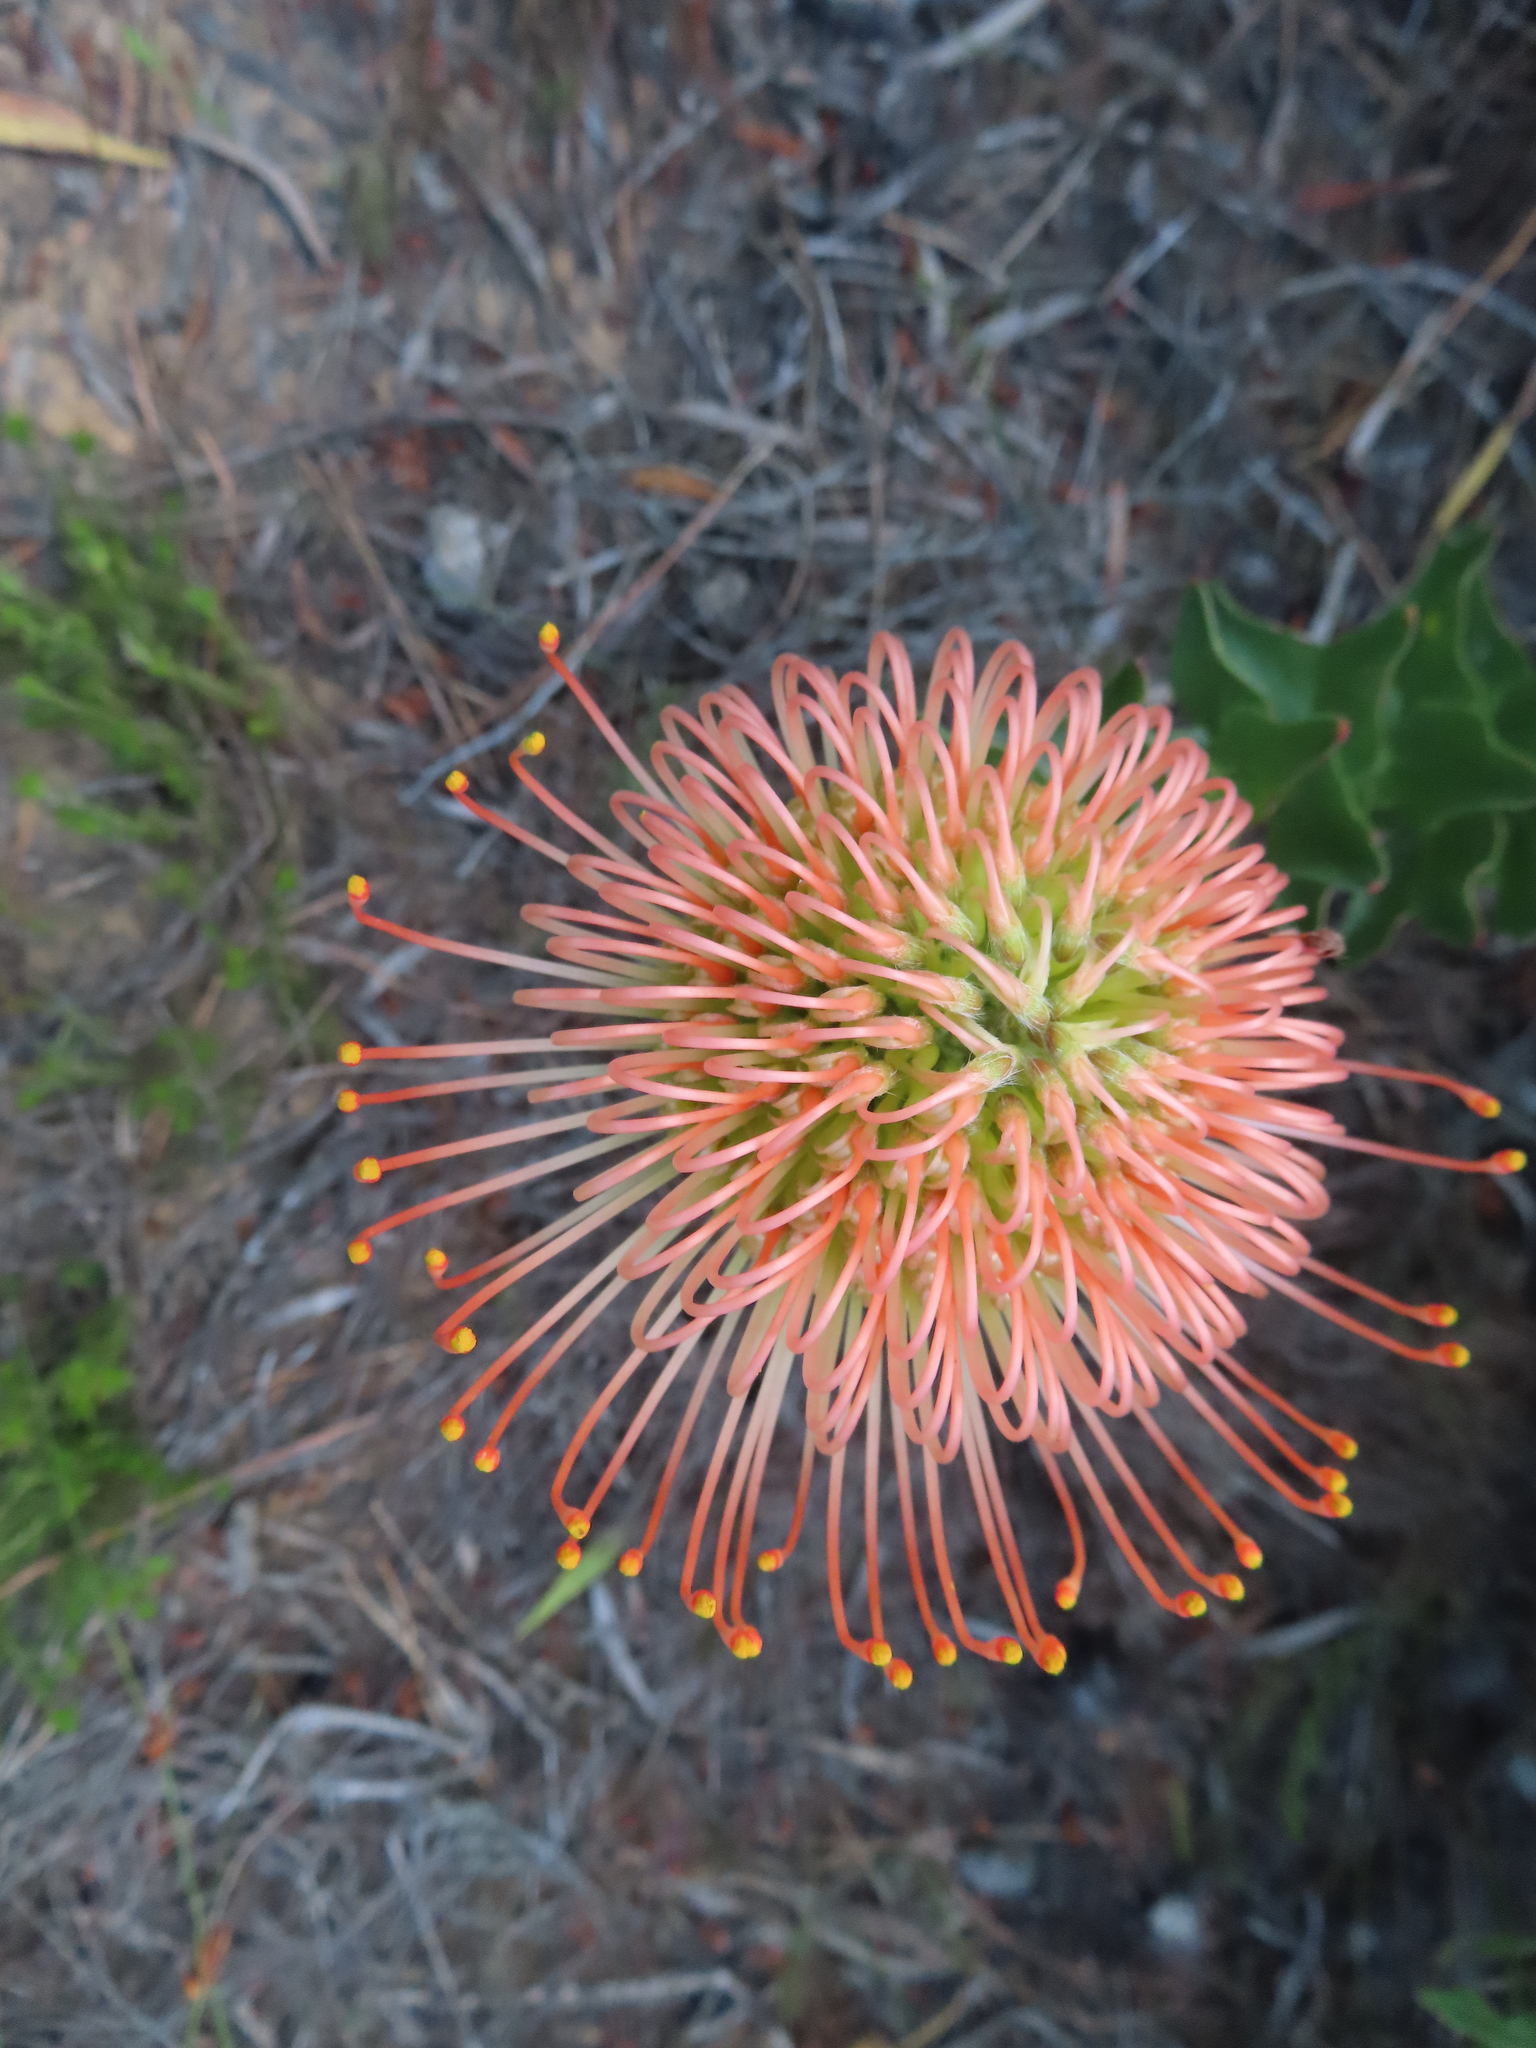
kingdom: Plantae
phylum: Tracheophyta
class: Magnoliopsida
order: Proteales
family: Proteaceae
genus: Leucospermum
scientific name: Leucospermum cordifolium
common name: Red pincushion-protea
